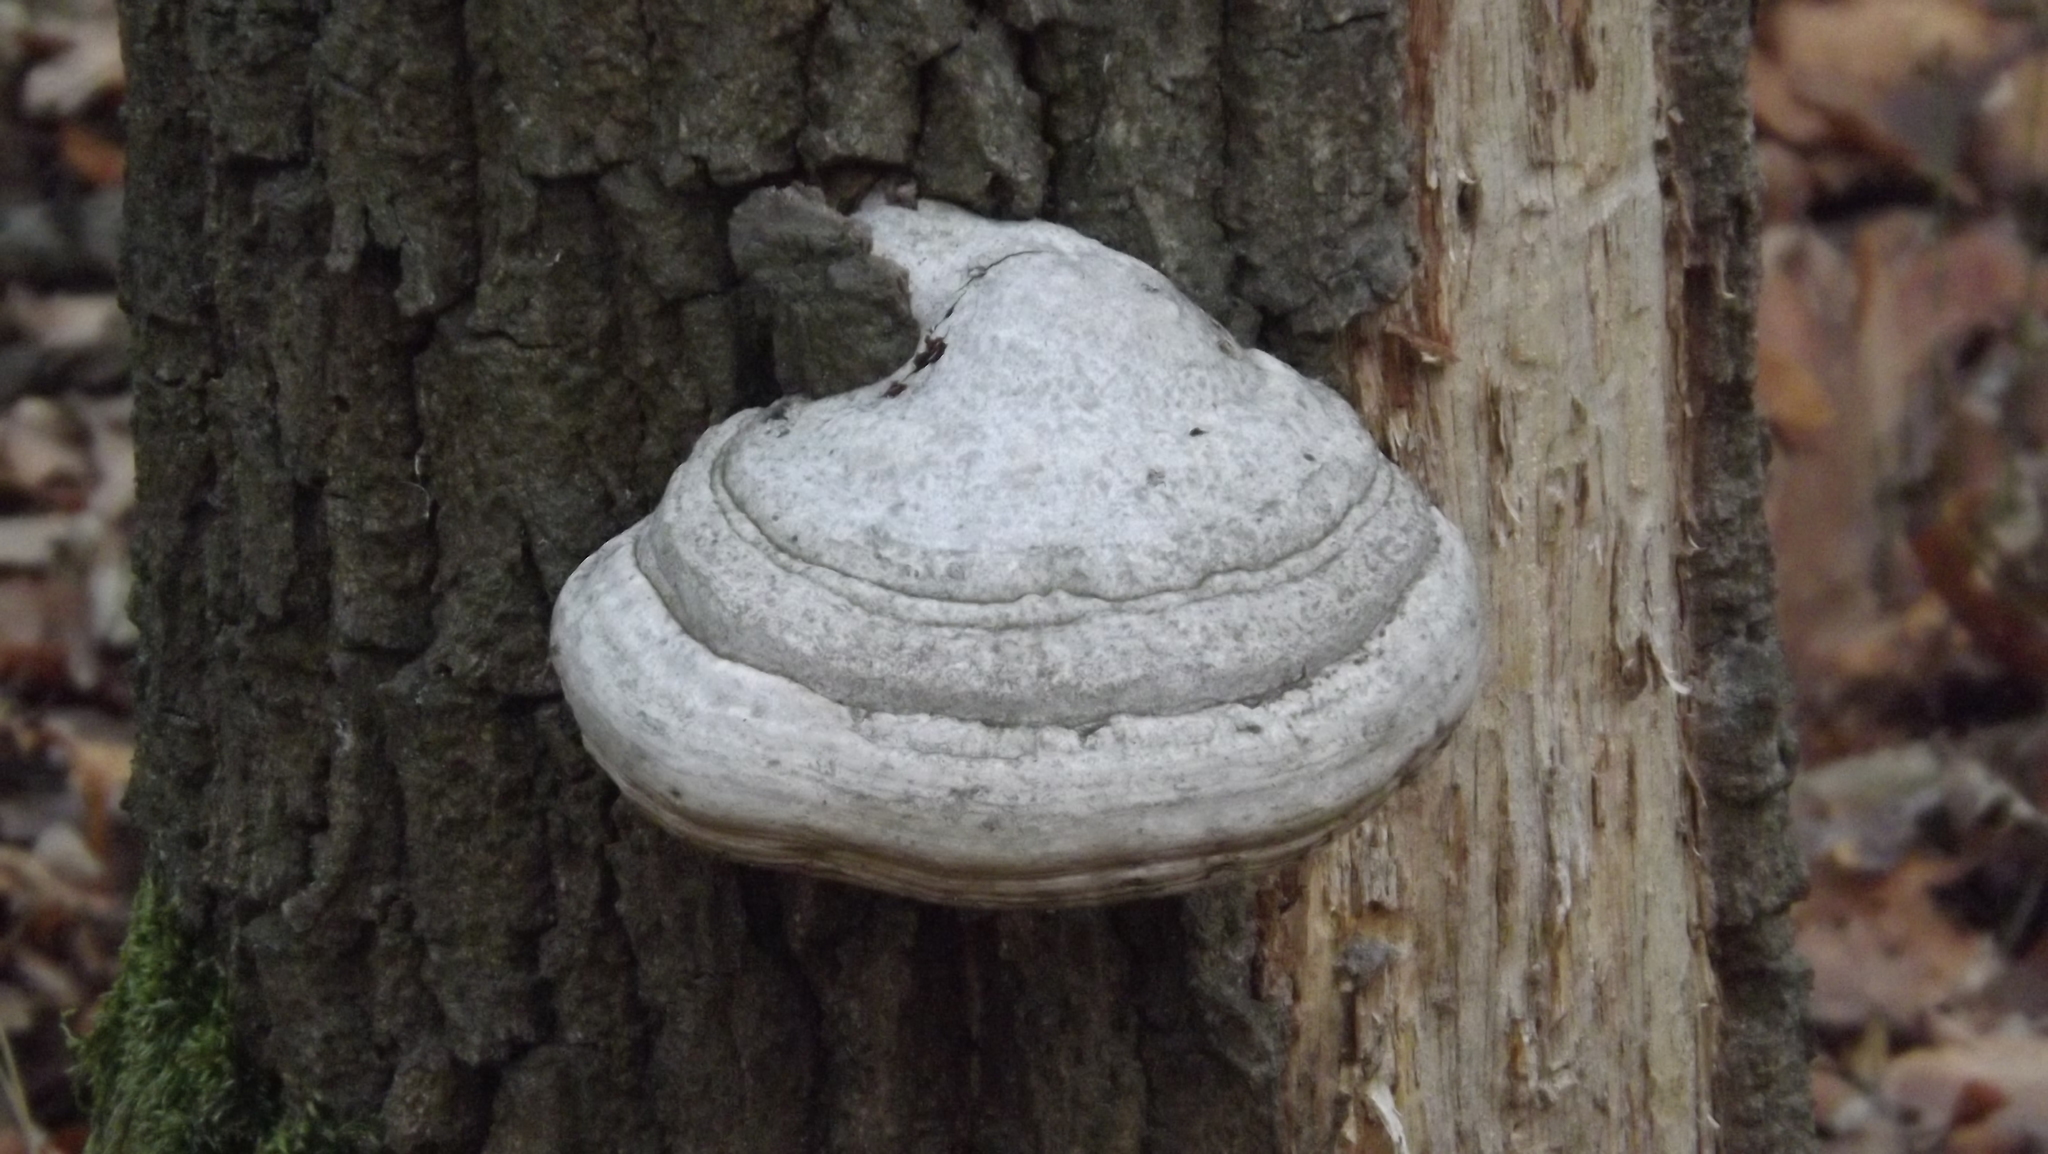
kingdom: Fungi
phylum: Basidiomycota
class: Agaricomycetes
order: Polyporales
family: Polyporaceae
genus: Fomes
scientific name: Fomes fomentarius
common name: Hoof fungus
